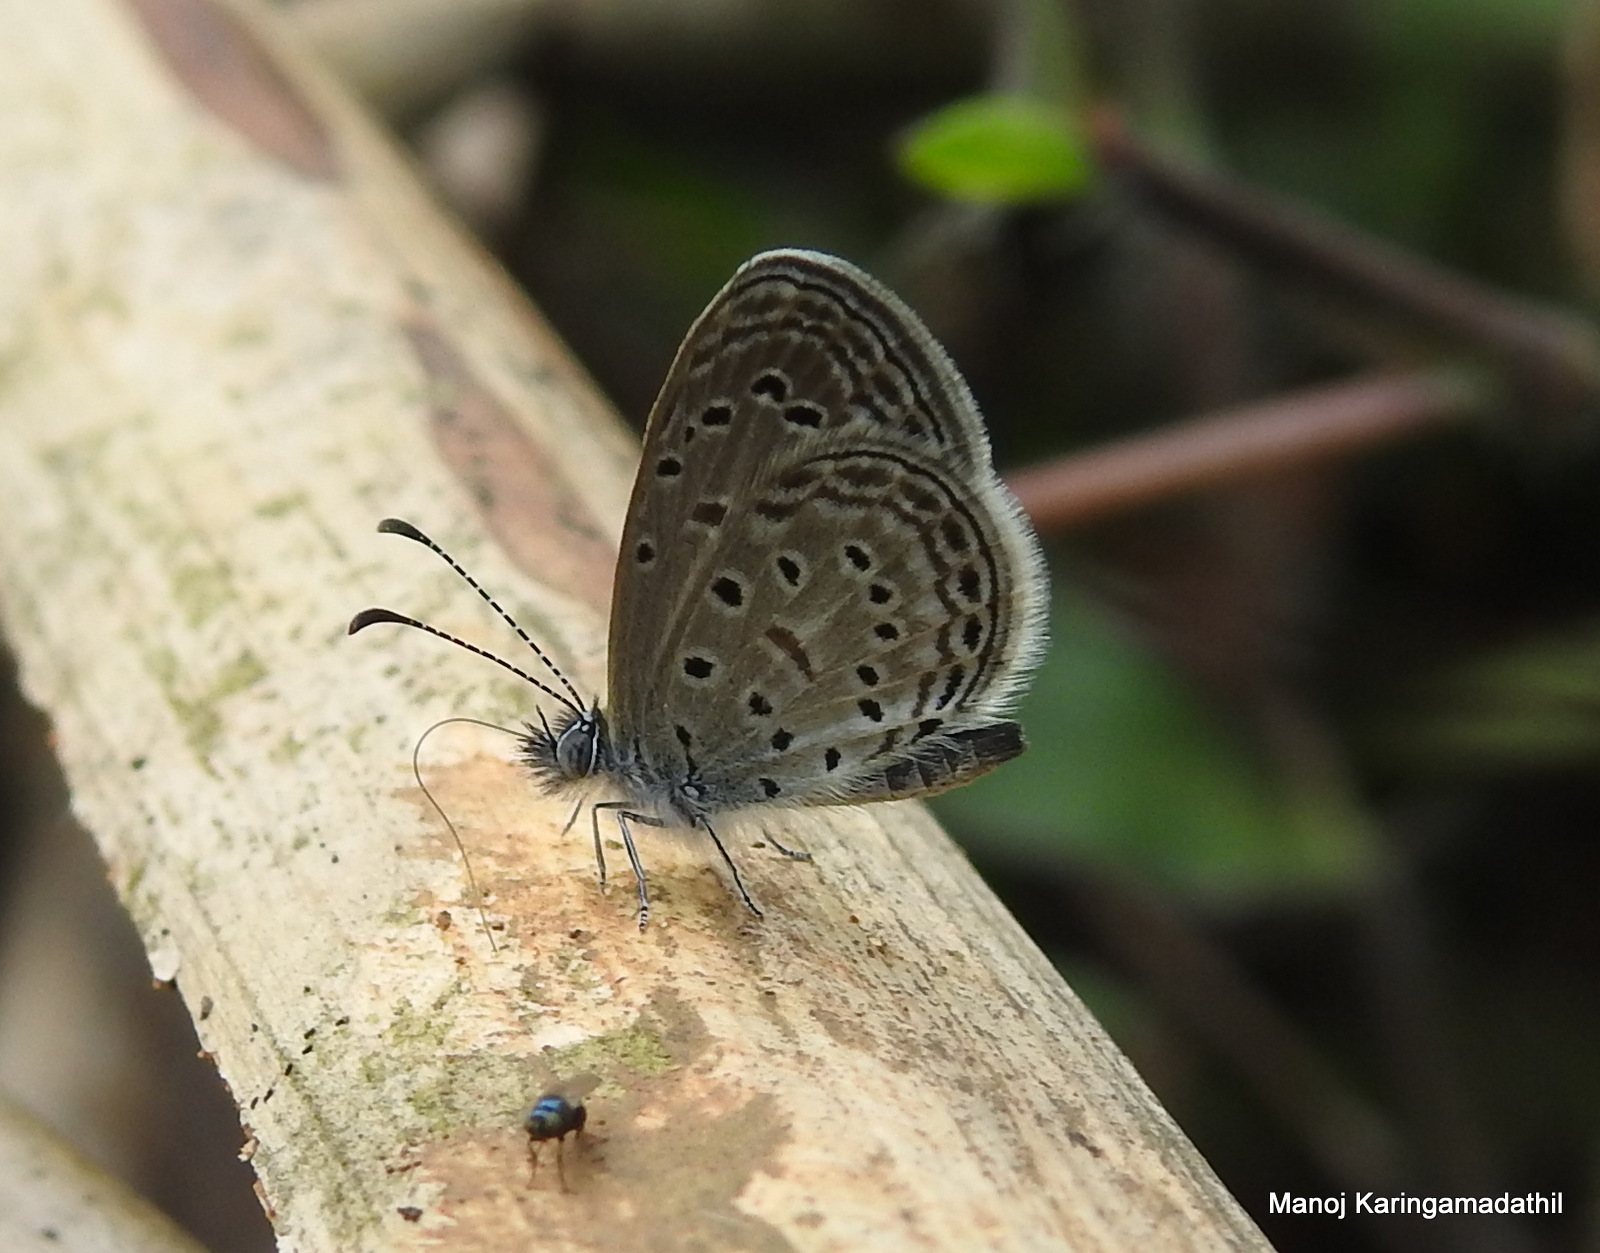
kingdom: Animalia
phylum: Arthropoda
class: Insecta
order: Lepidoptera
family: Lycaenidae
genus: Zizula
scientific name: Zizula hylax
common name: Gaika blue
